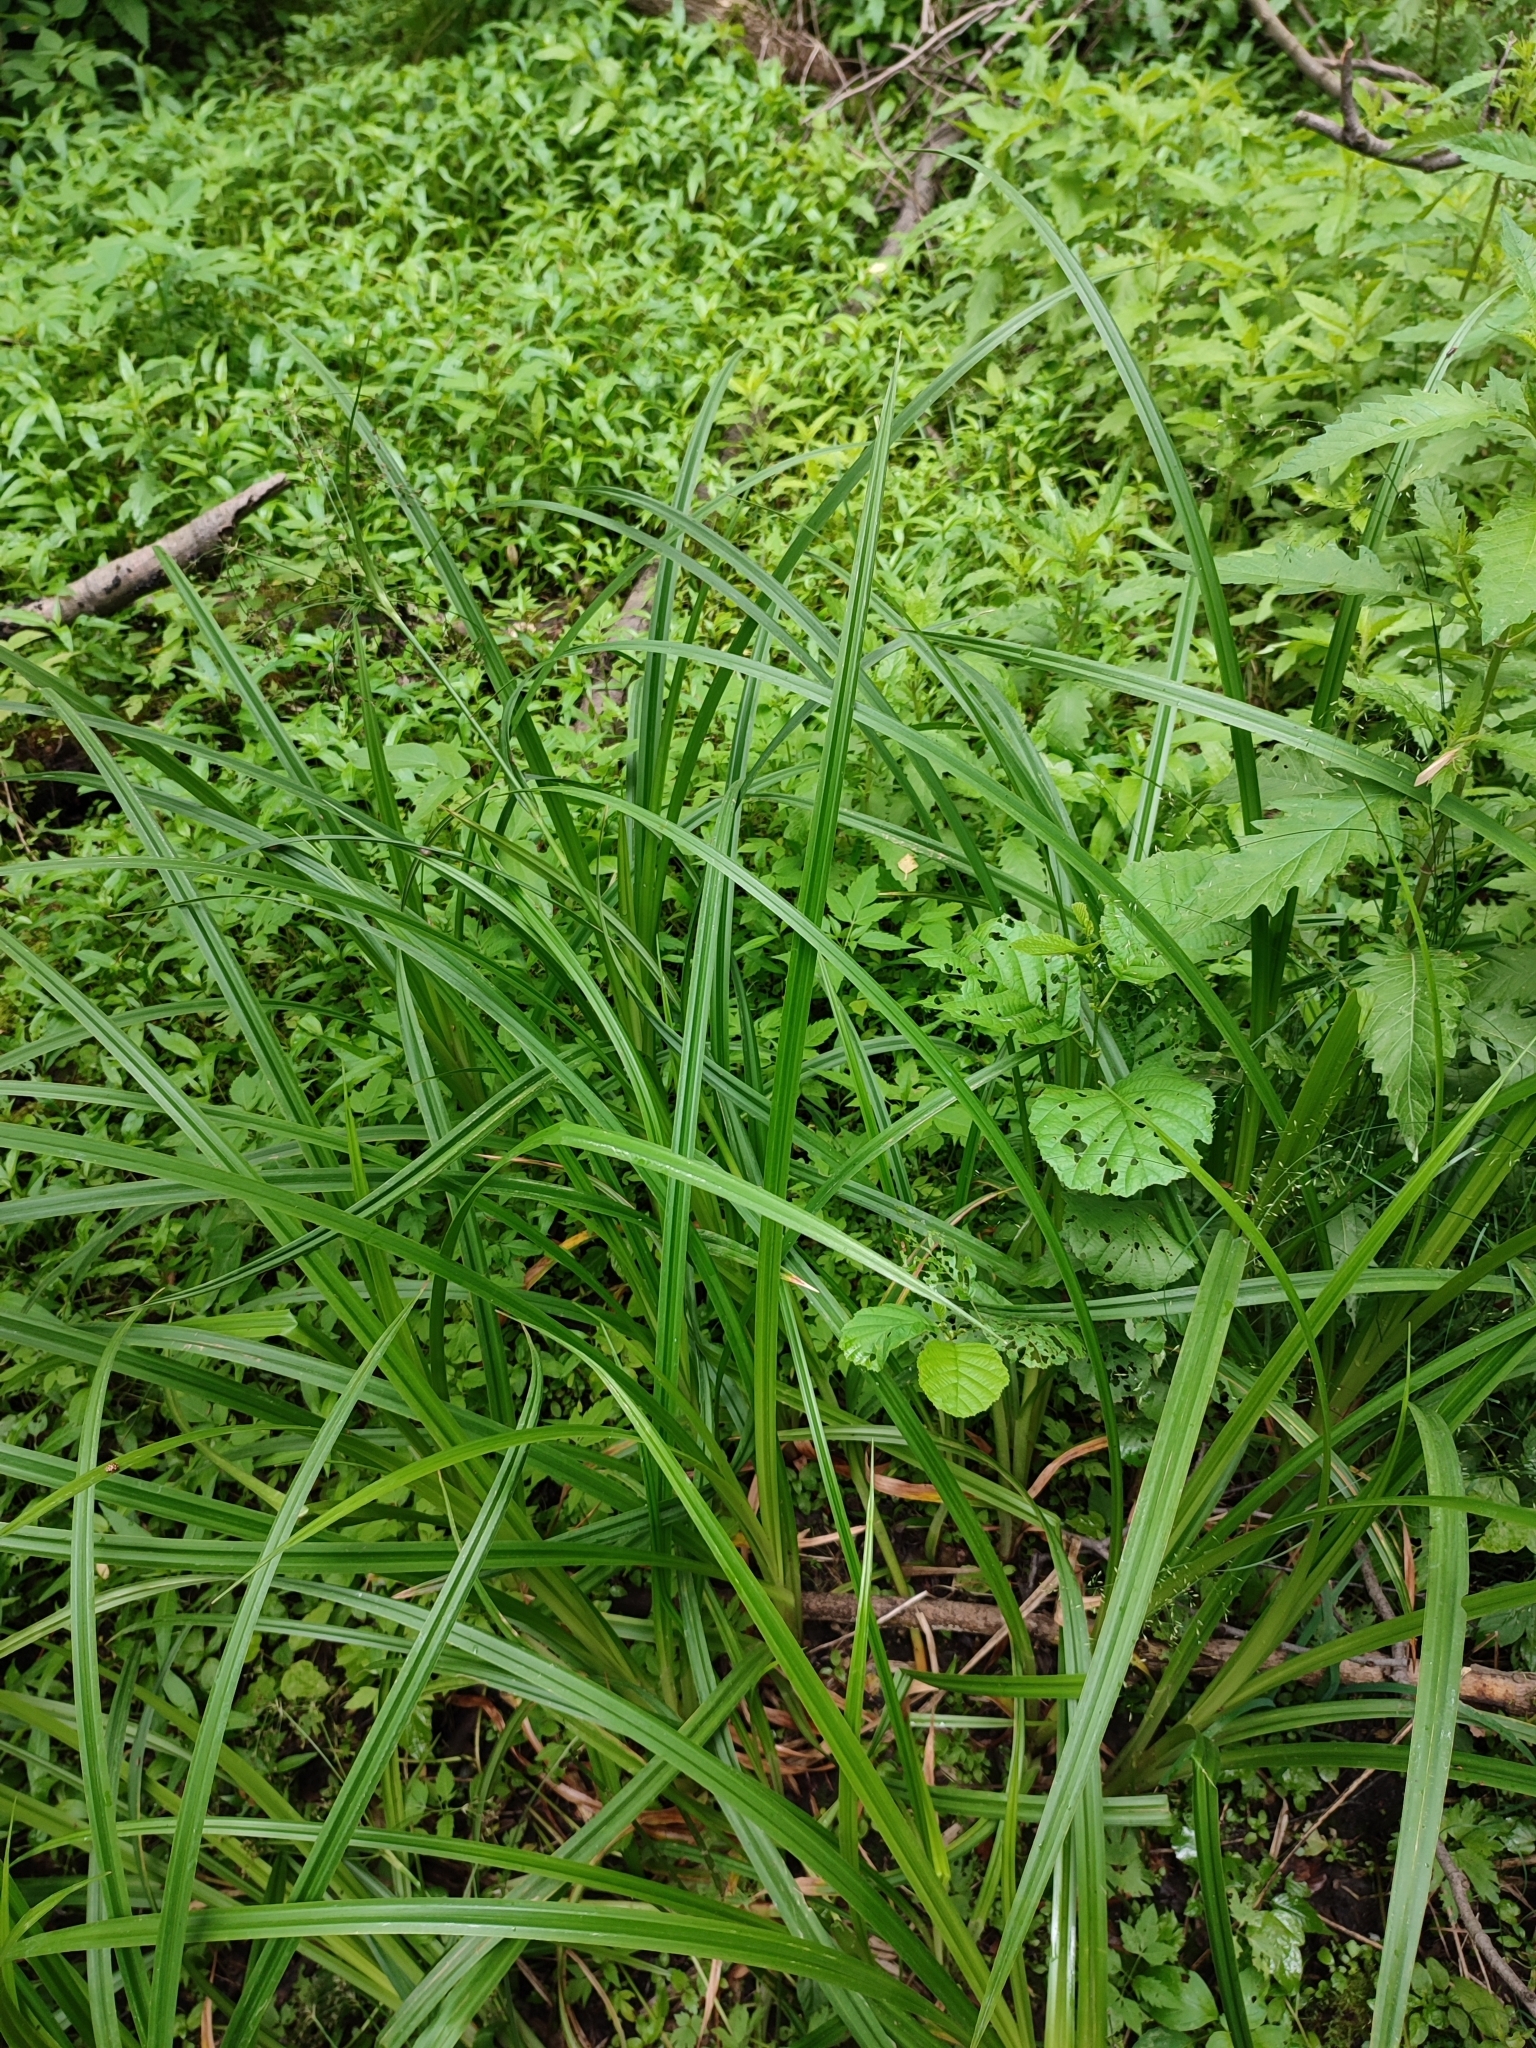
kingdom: Plantae
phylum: Tracheophyta
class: Liliopsida
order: Poales
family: Cyperaceae
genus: Scirpus
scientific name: Scirpus sylvaticus
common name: Wood club-rush
